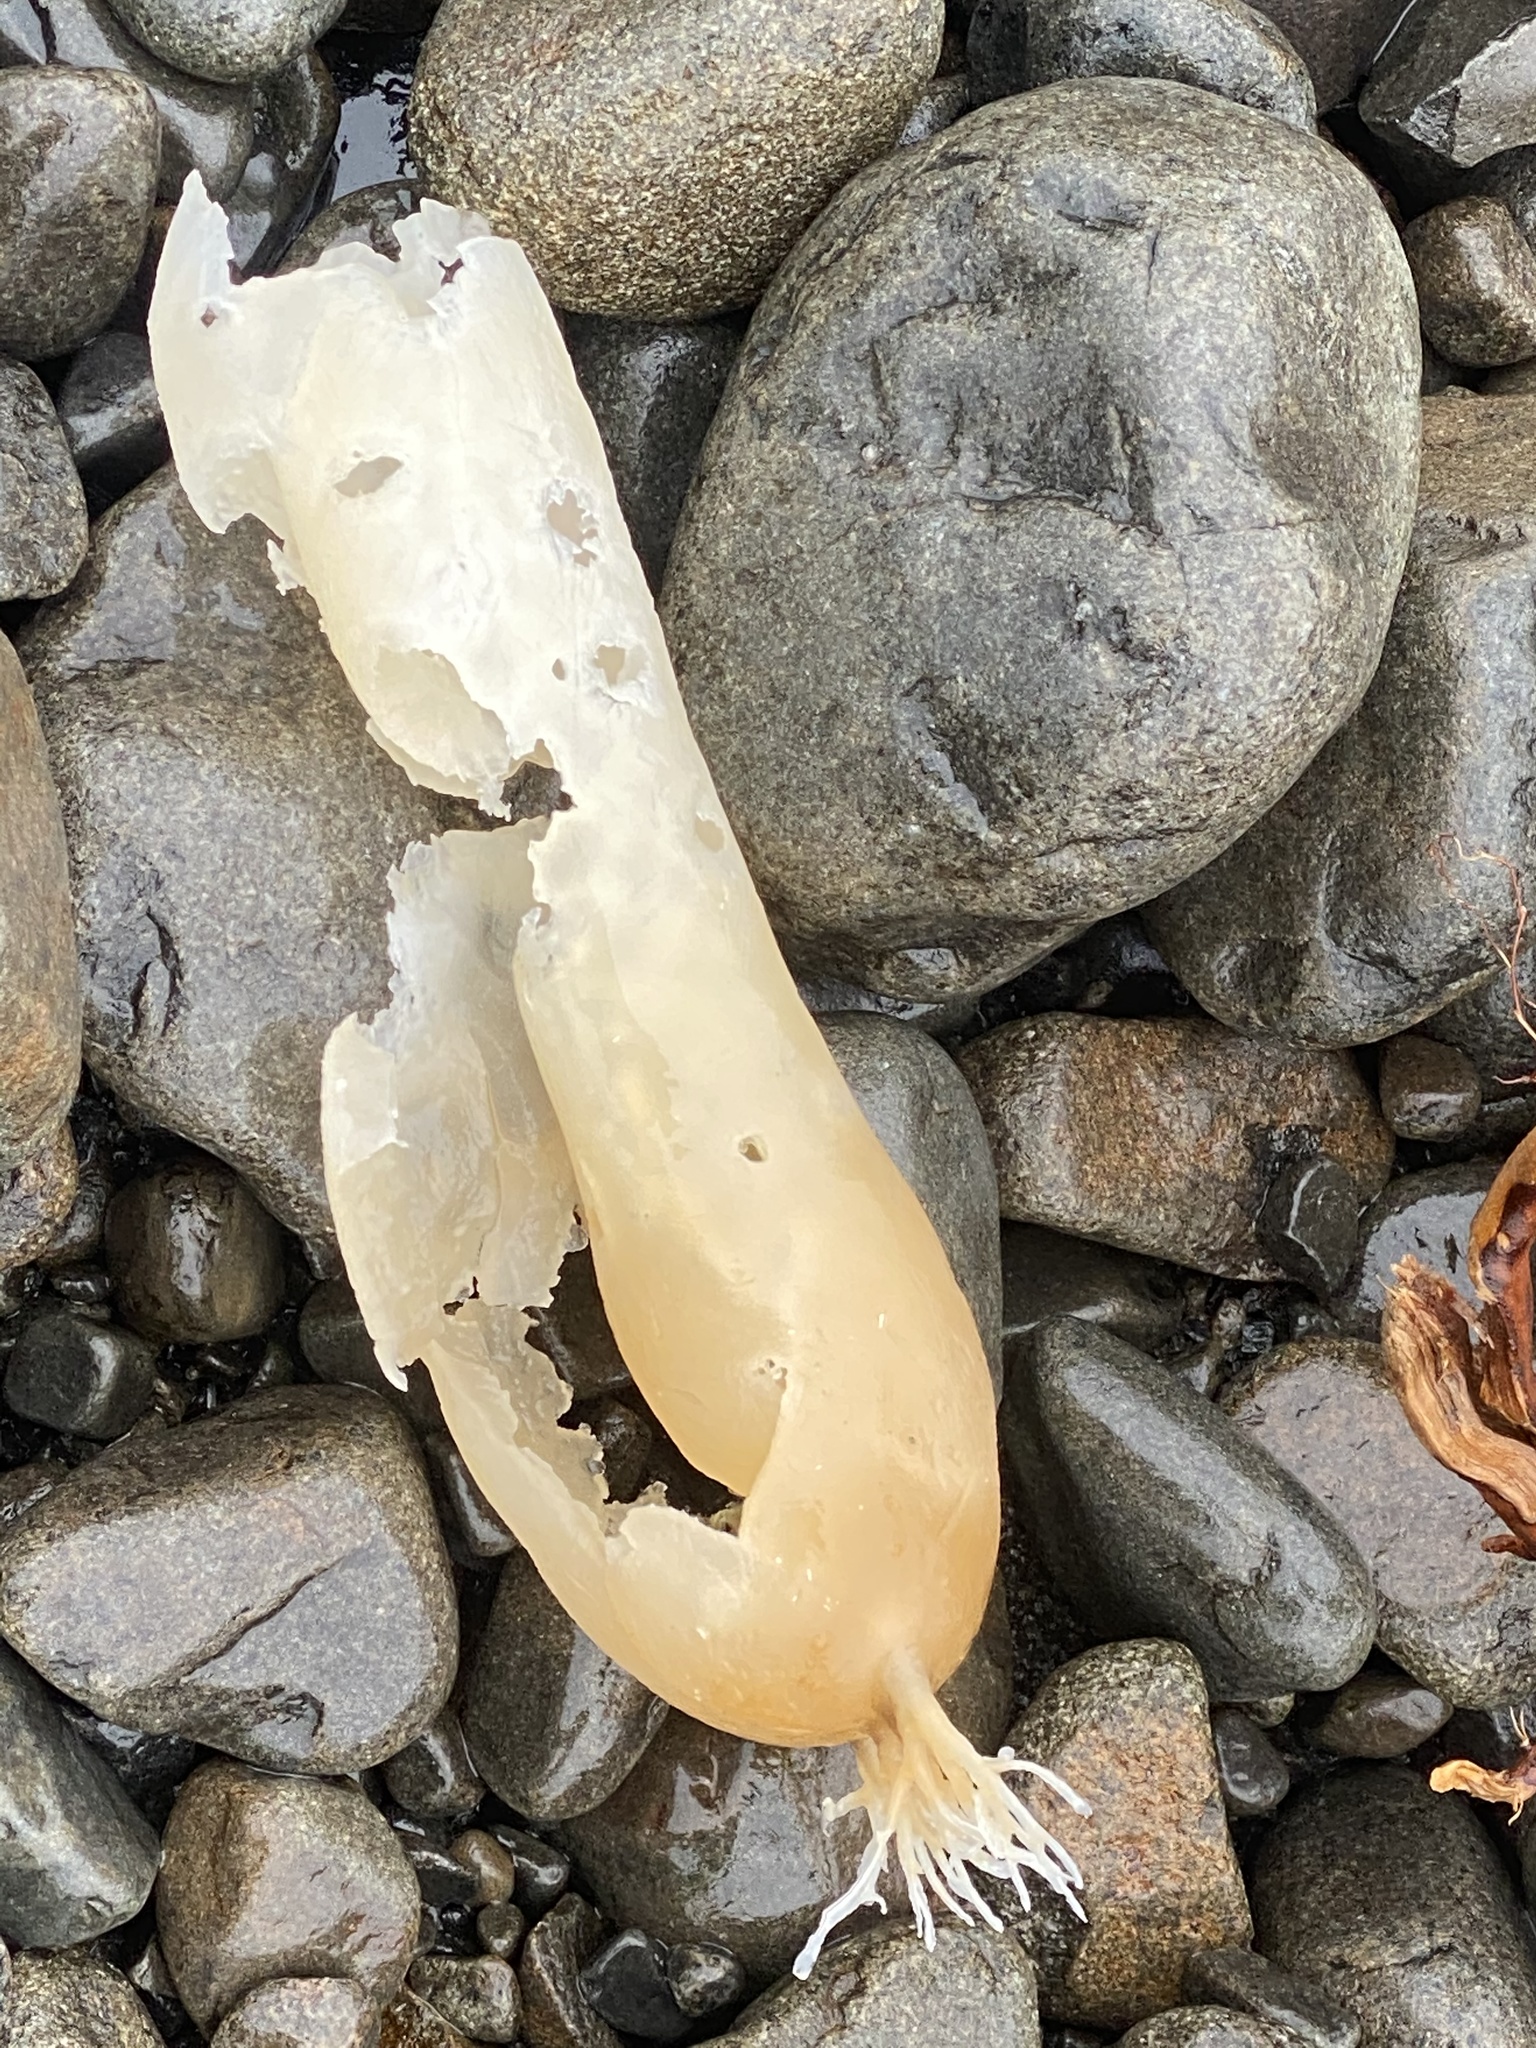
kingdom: Chromista
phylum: Ochrophyta
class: Phaeophyceae
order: Laminariales
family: Laminariaceae
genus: Nereocystis
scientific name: Nereocystis luetkeana
